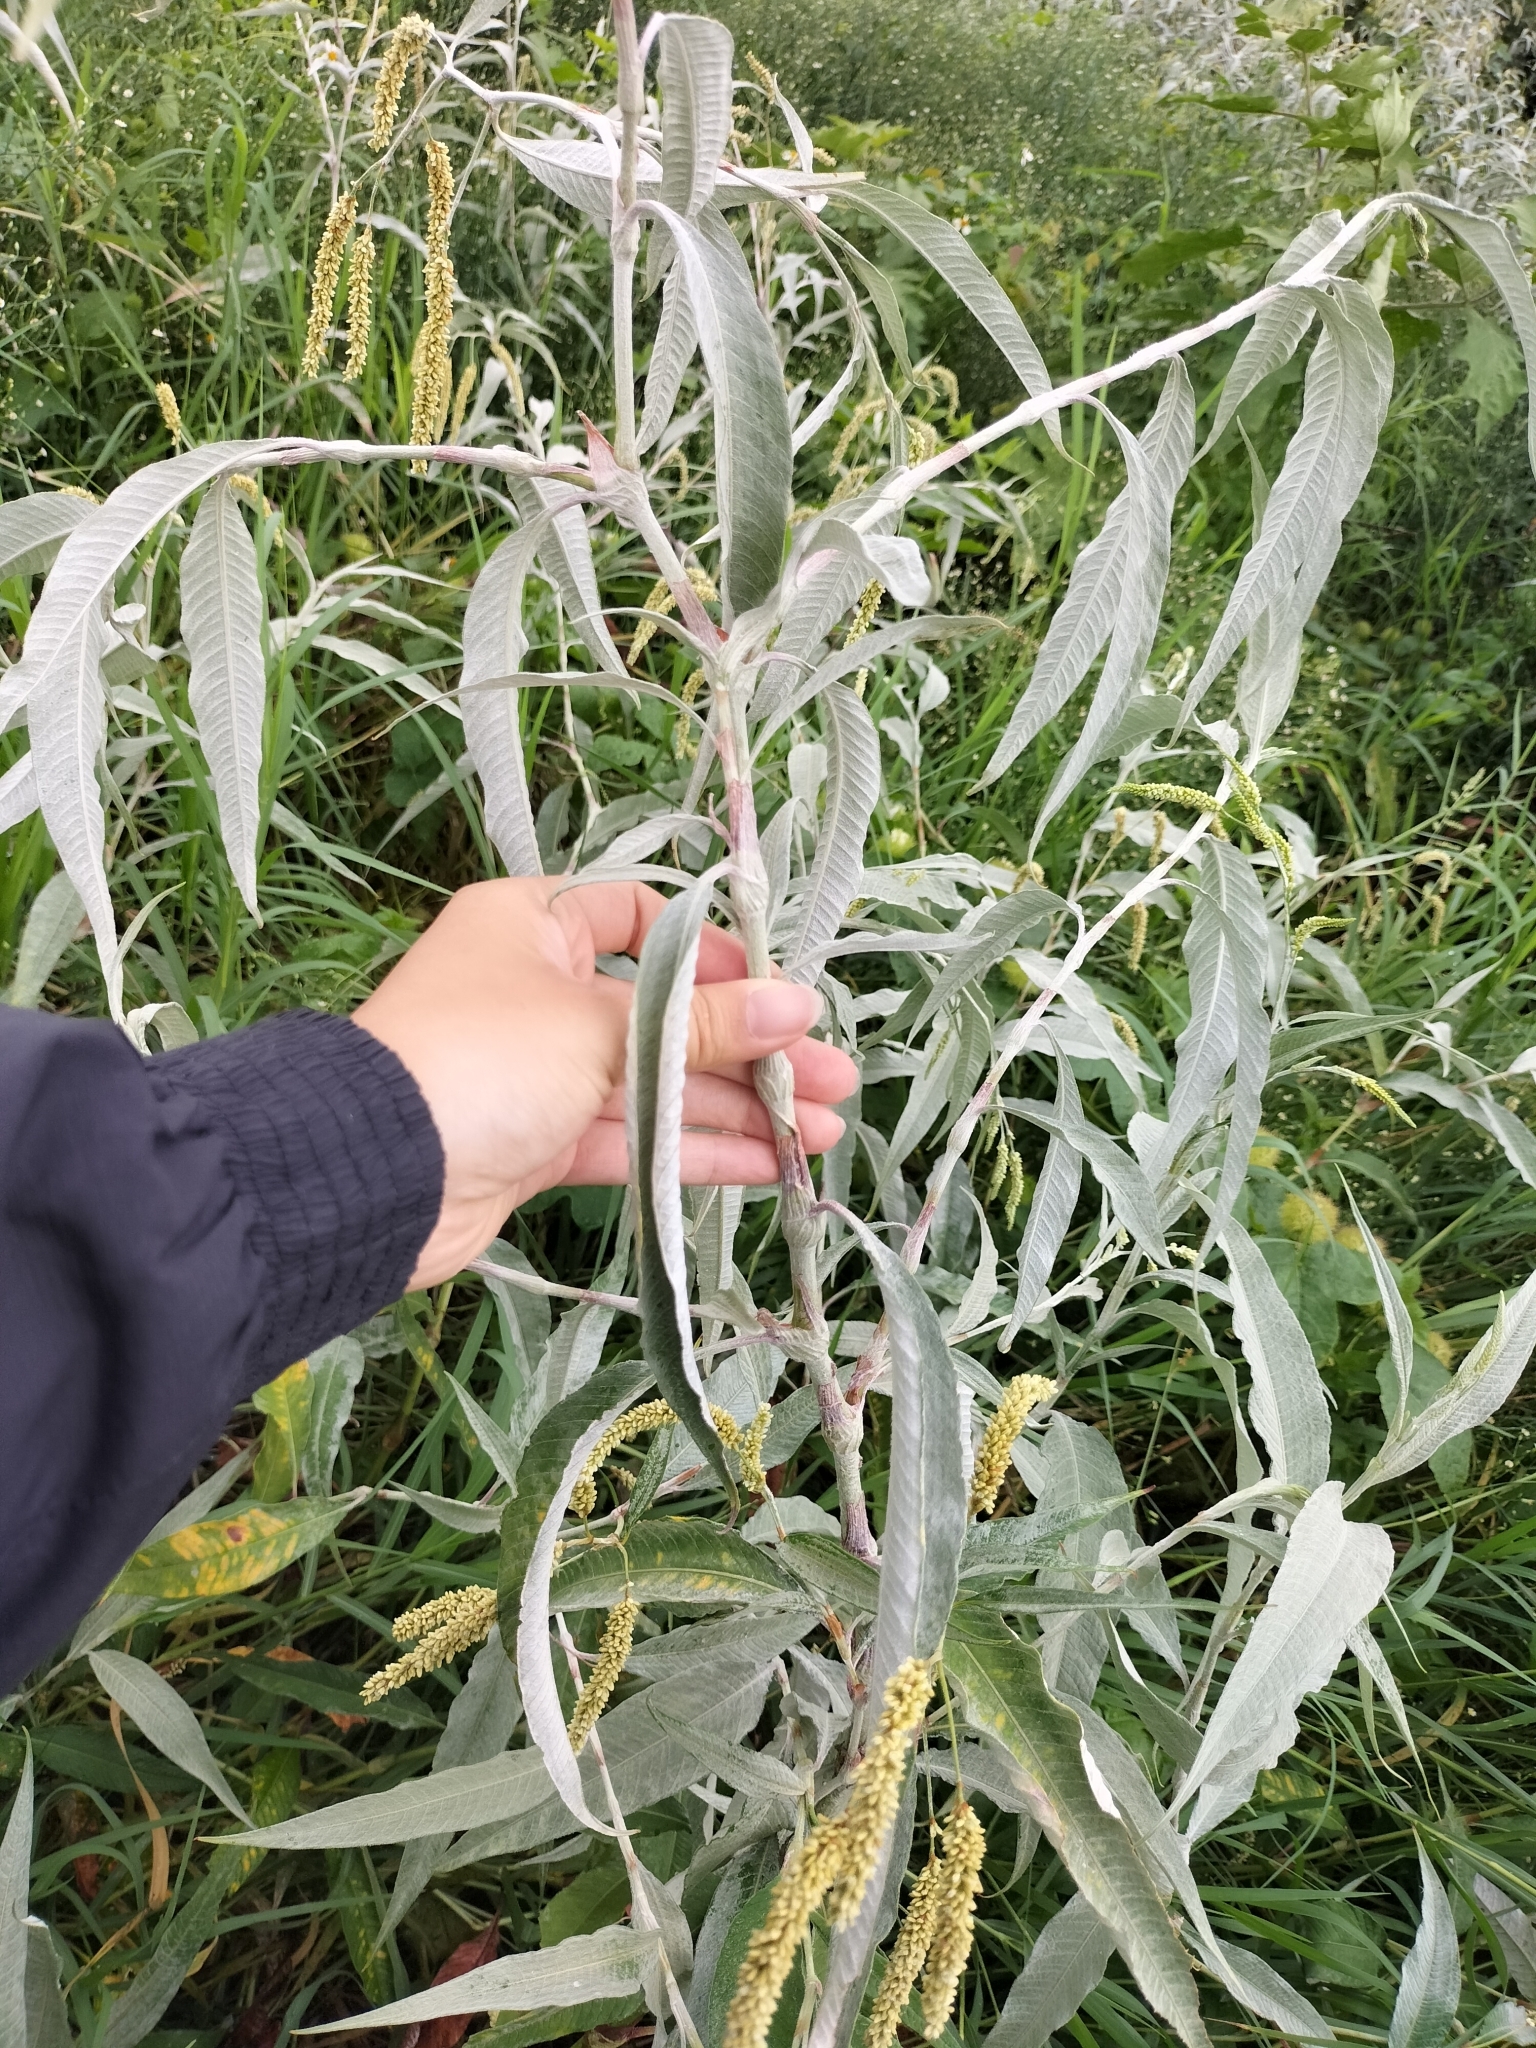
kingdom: Plantae
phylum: Tracheophyta
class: Magnoliopsida
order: Caryophyllales
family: Polygonaceae
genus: Persicaria
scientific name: Persicaria lanata
